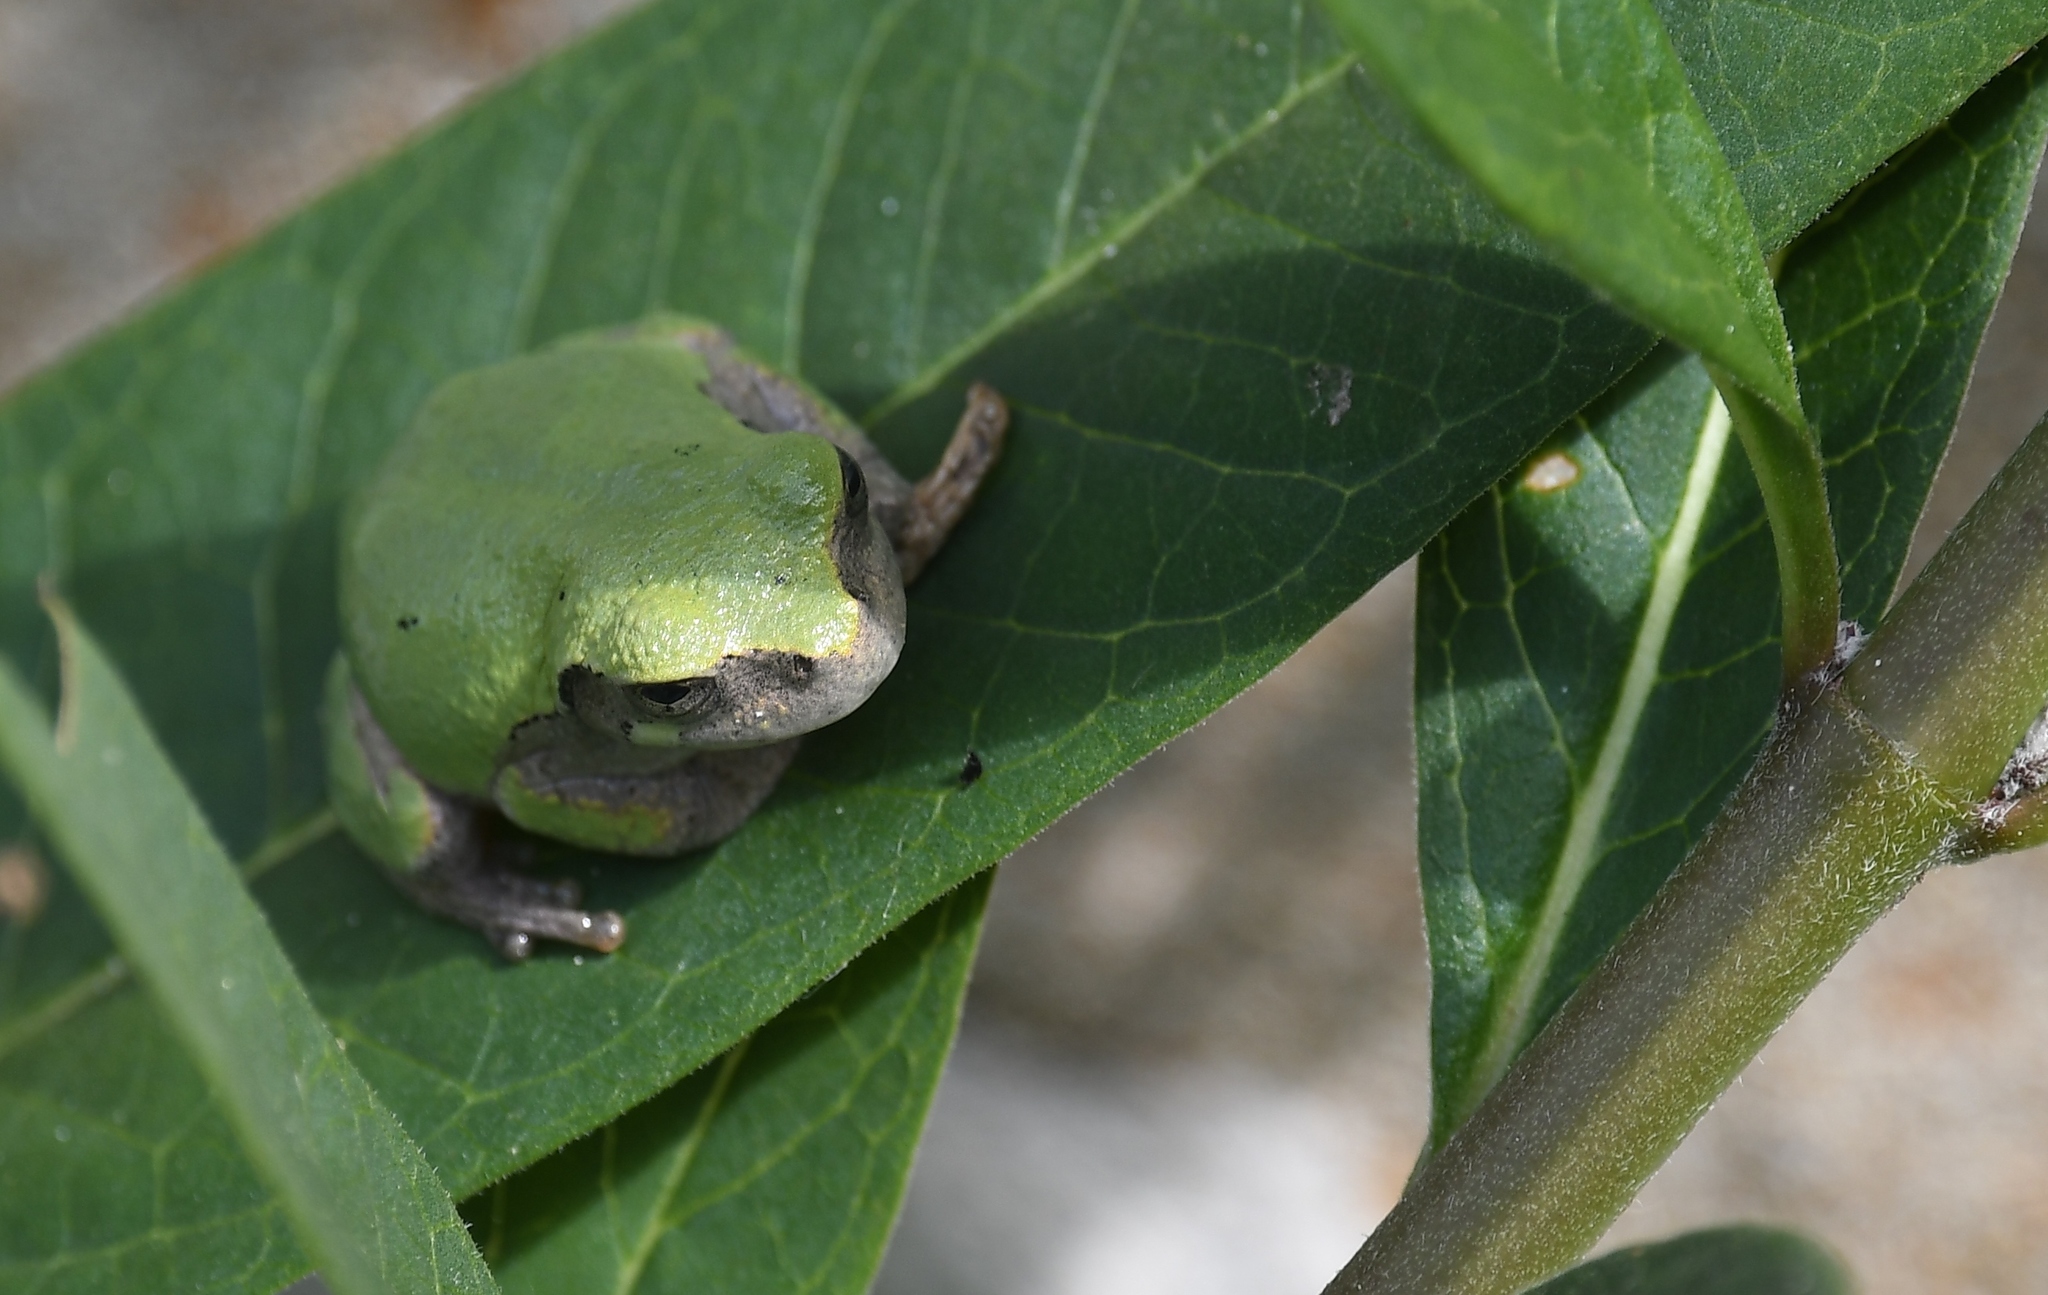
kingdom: Animalia
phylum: Chordata
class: Amphibia
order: Anura
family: Hylidae
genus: Hyla
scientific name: Hyla
